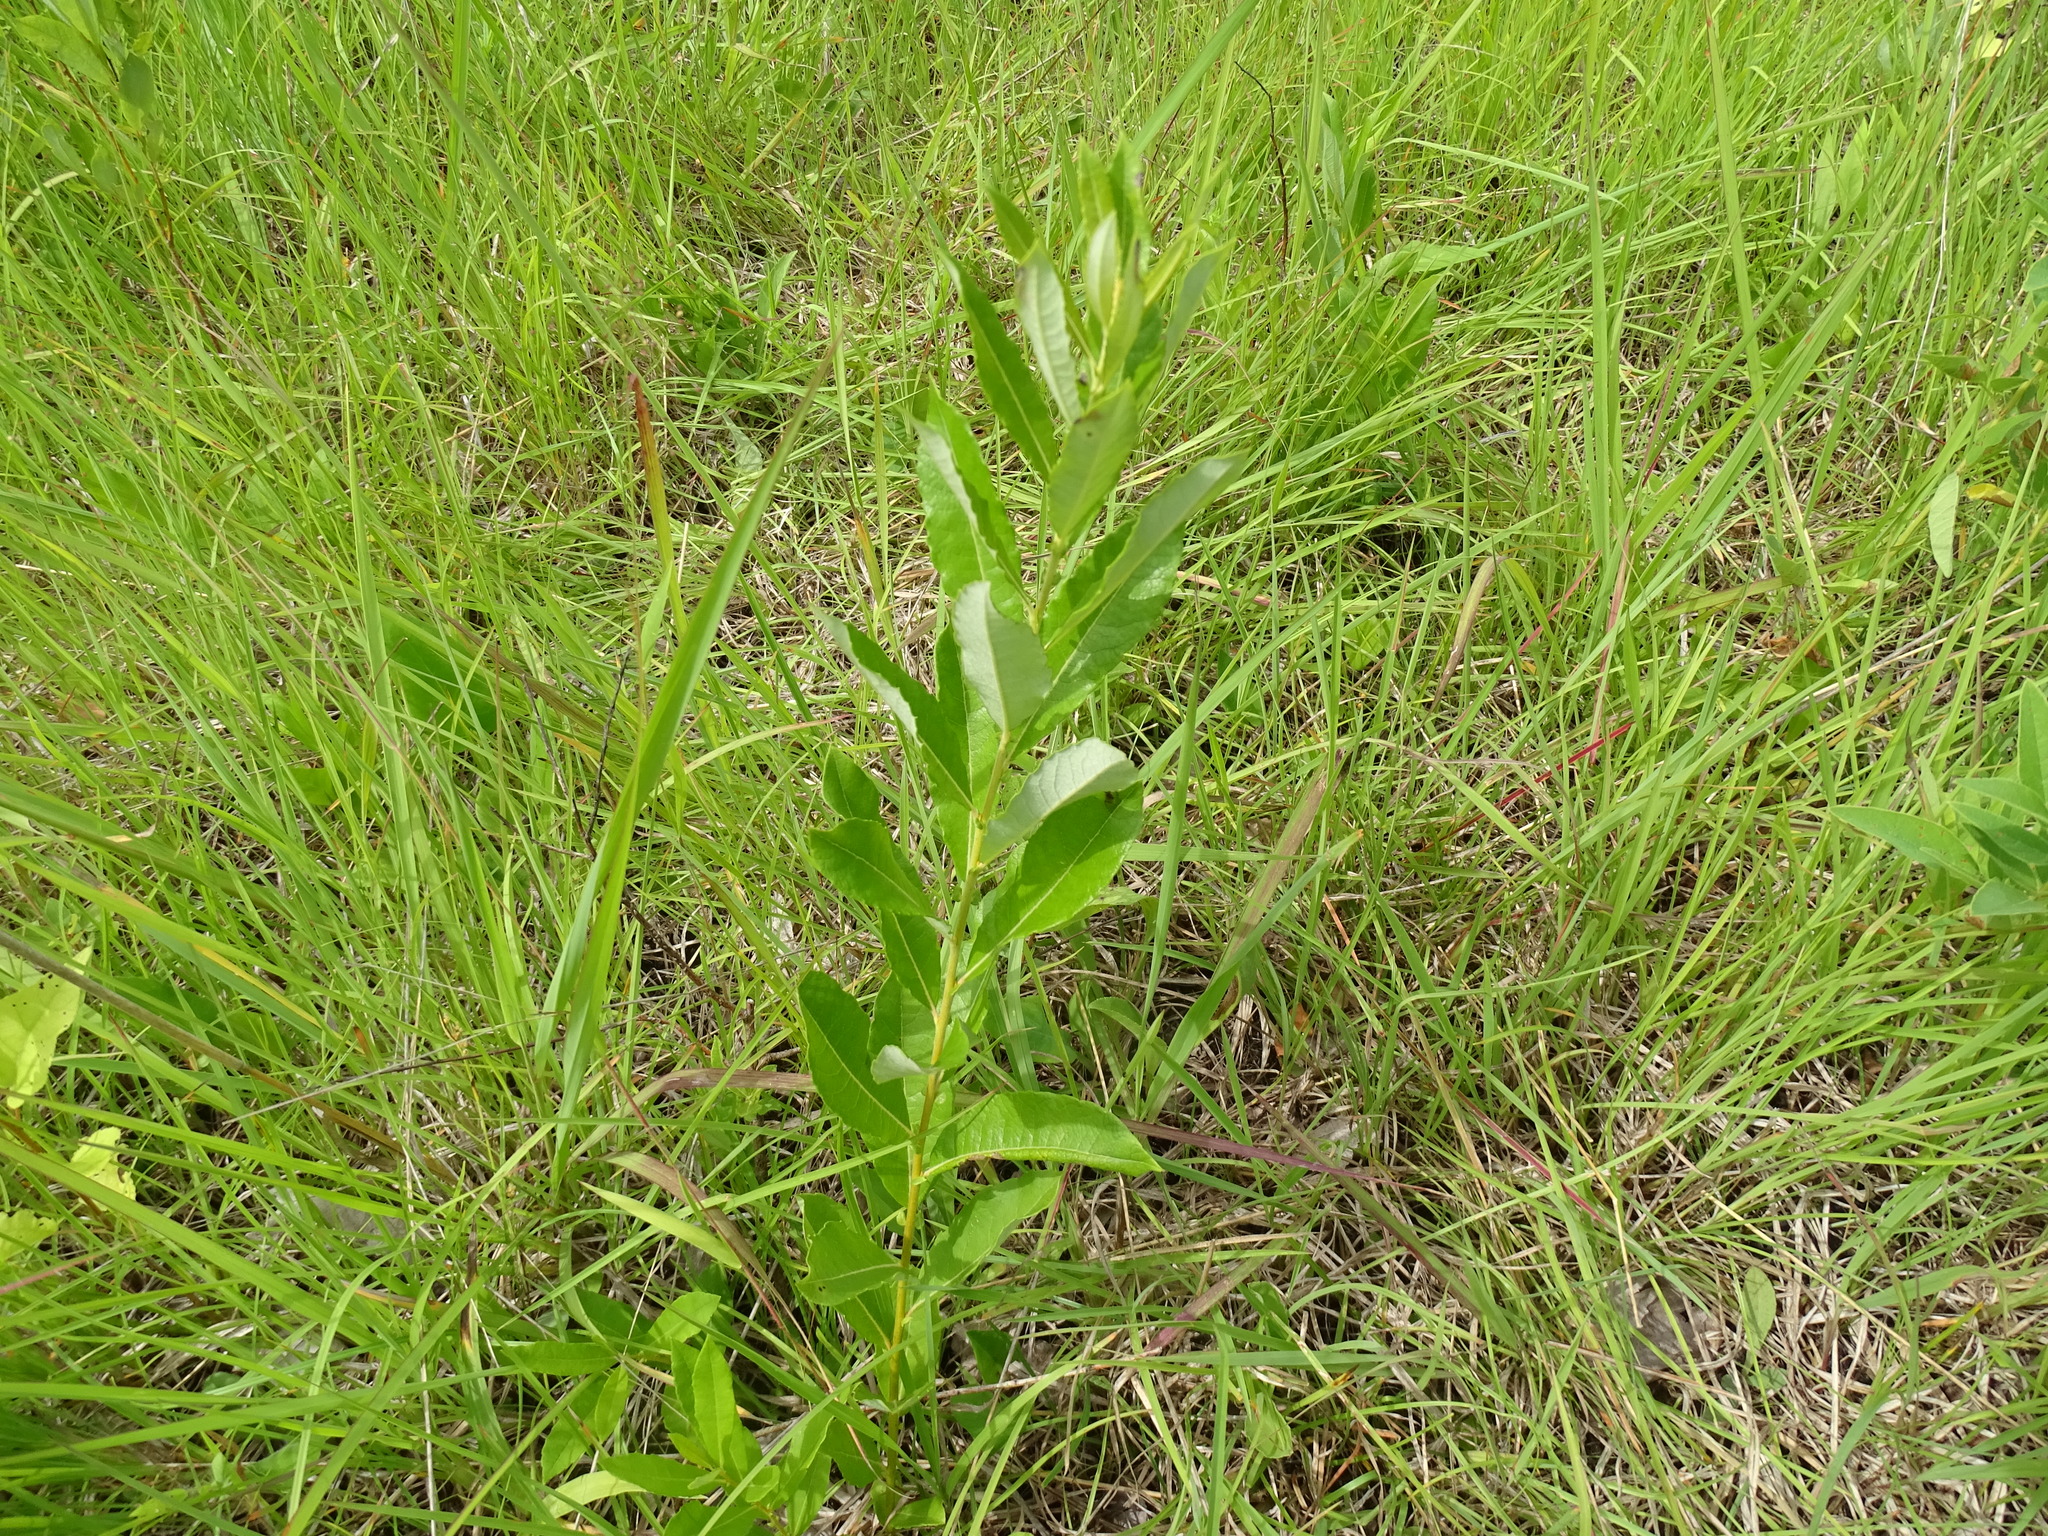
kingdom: Plantae
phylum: Tracheophyta
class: Magnoliopsida
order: Malpighiales
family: Salicaceae
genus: Salix
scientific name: Salix humilis
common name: Prairie willow
